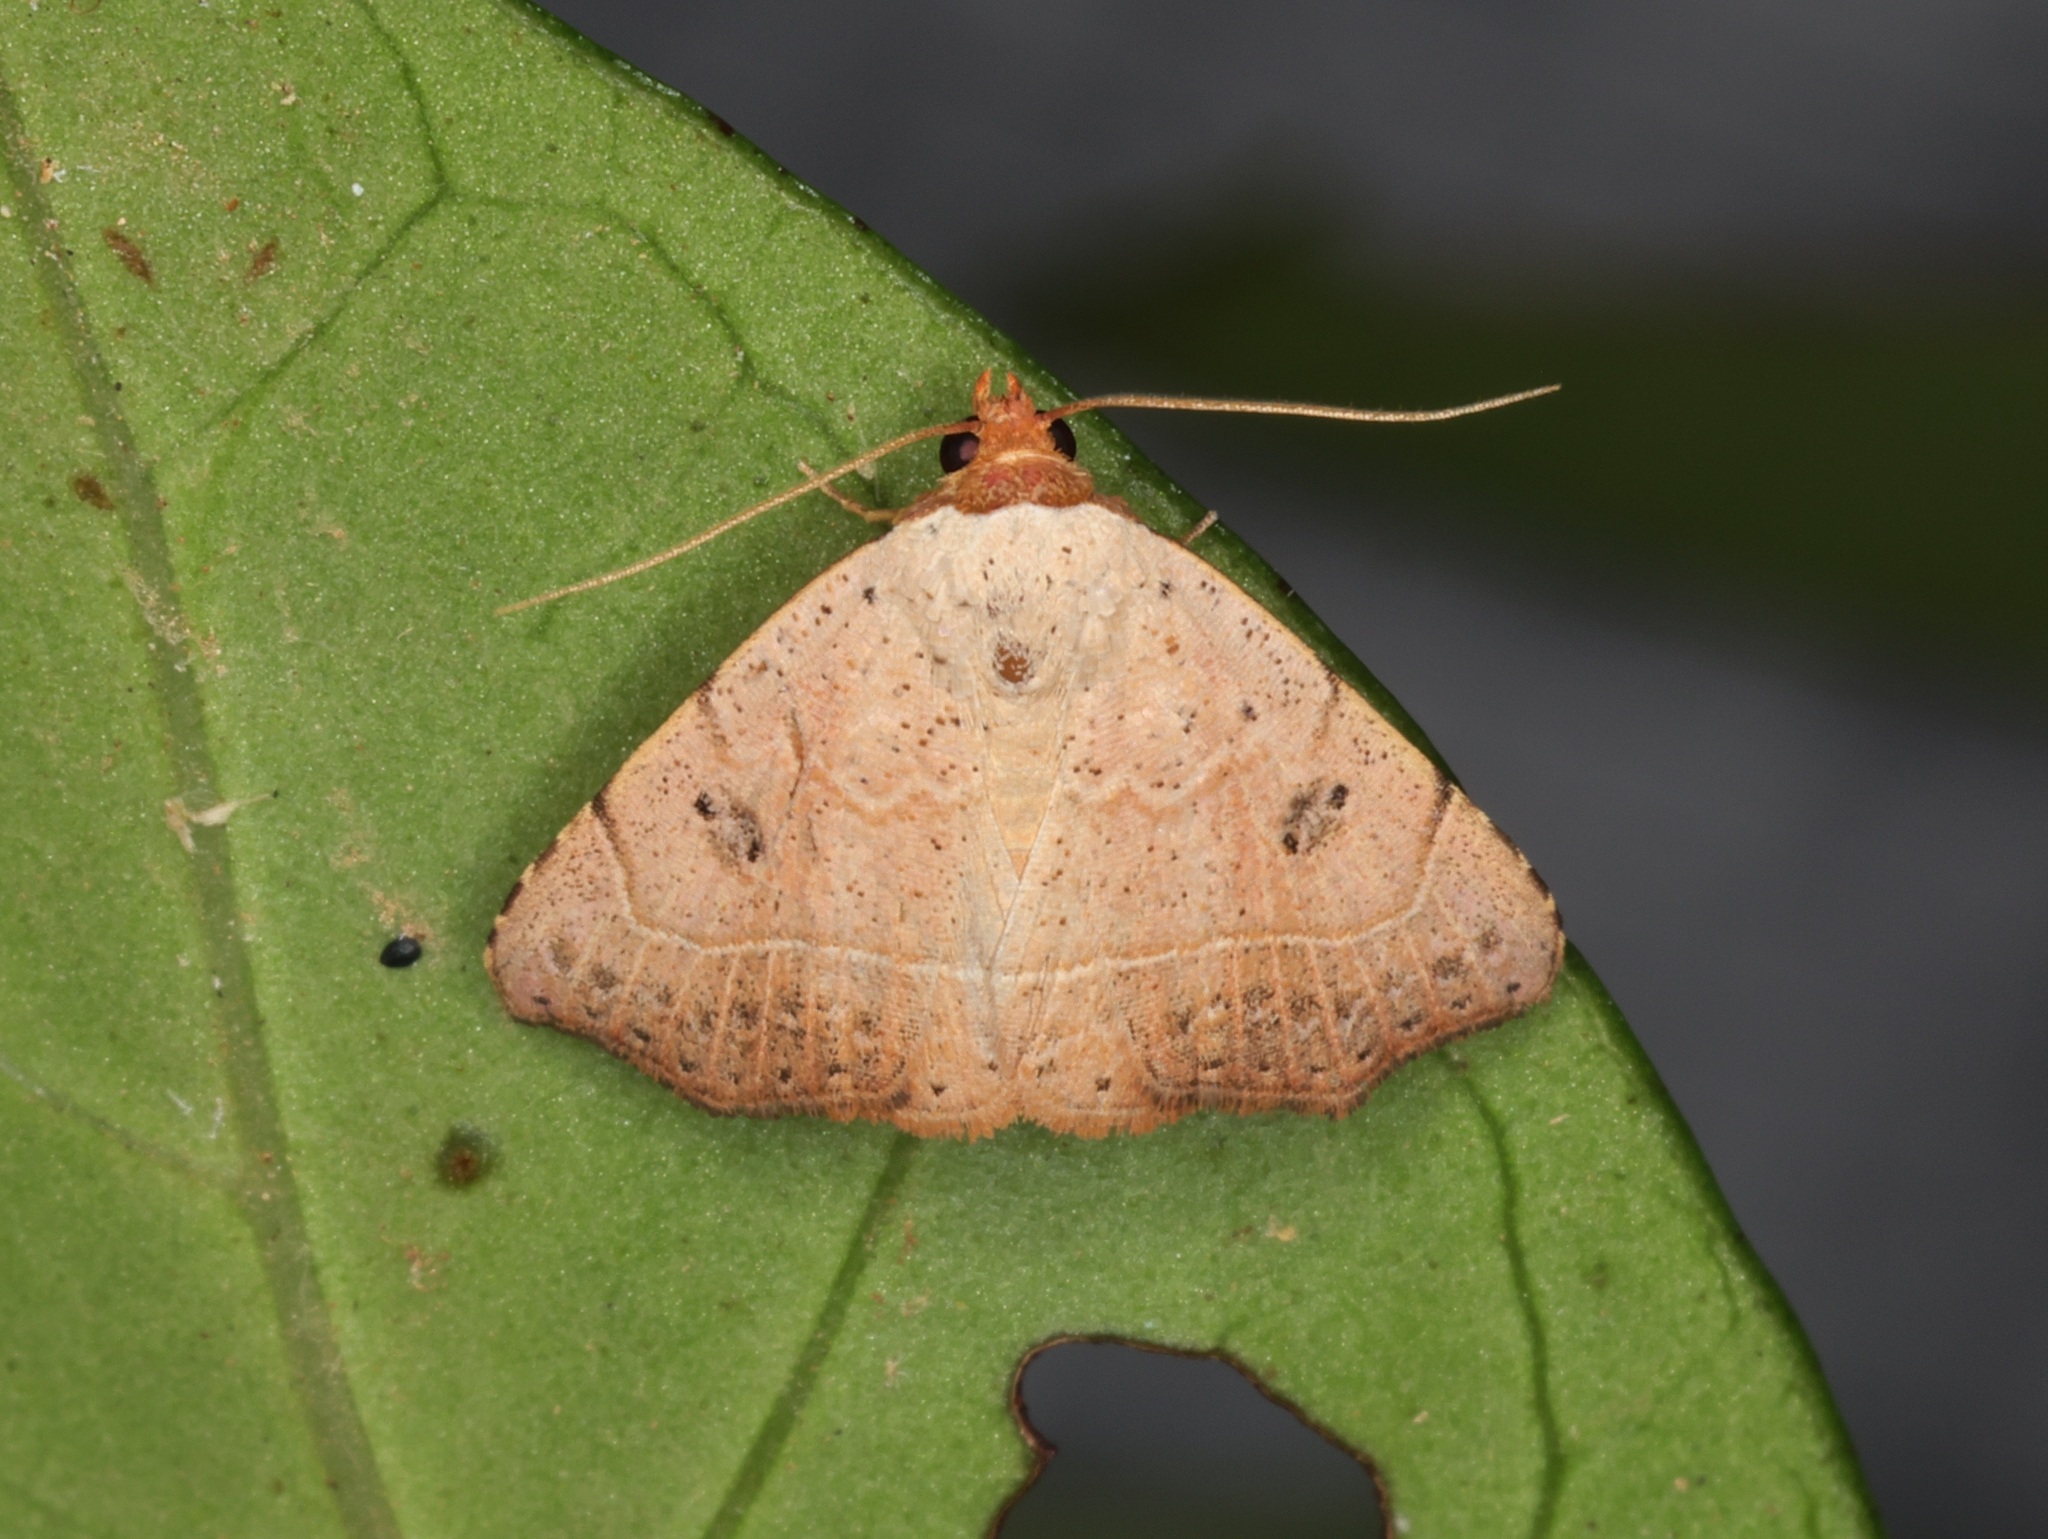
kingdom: Animalia
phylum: Arthropoda
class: Insecta
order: Lepidoptera
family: Erebidae
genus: Laspeyria
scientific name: Laspeyria ruficeps
